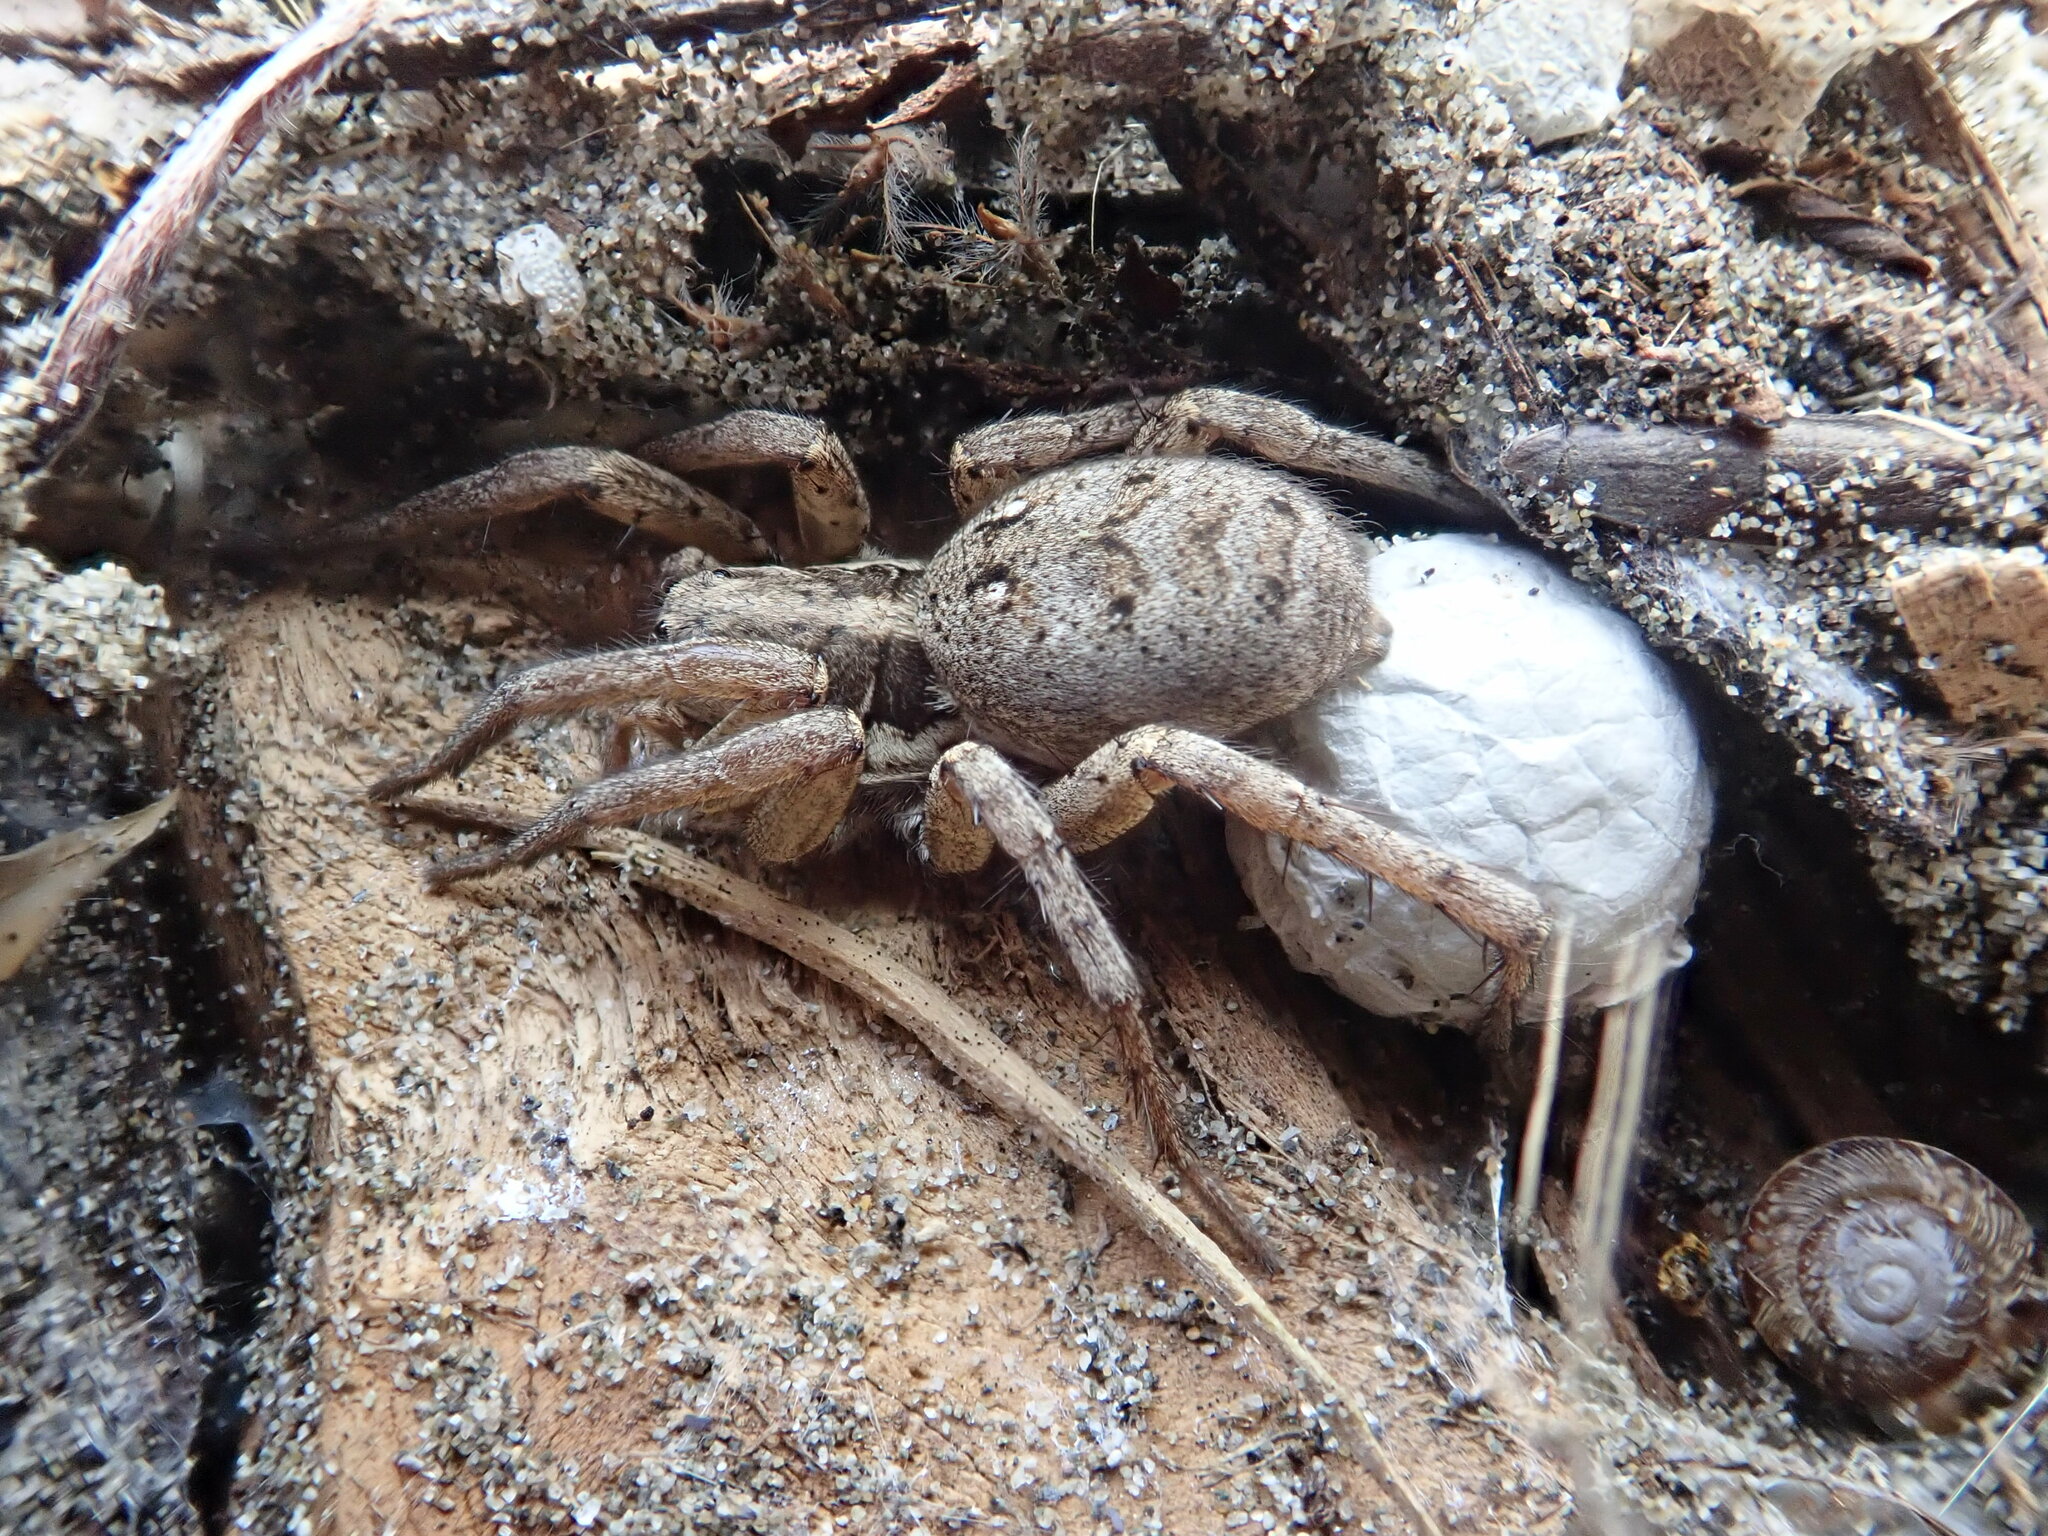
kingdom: Animalia
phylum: Arthropoda
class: Arachnida
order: Araneae
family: Lycosidae
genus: Hogna
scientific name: Hogna crispipes
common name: Wolf spider
